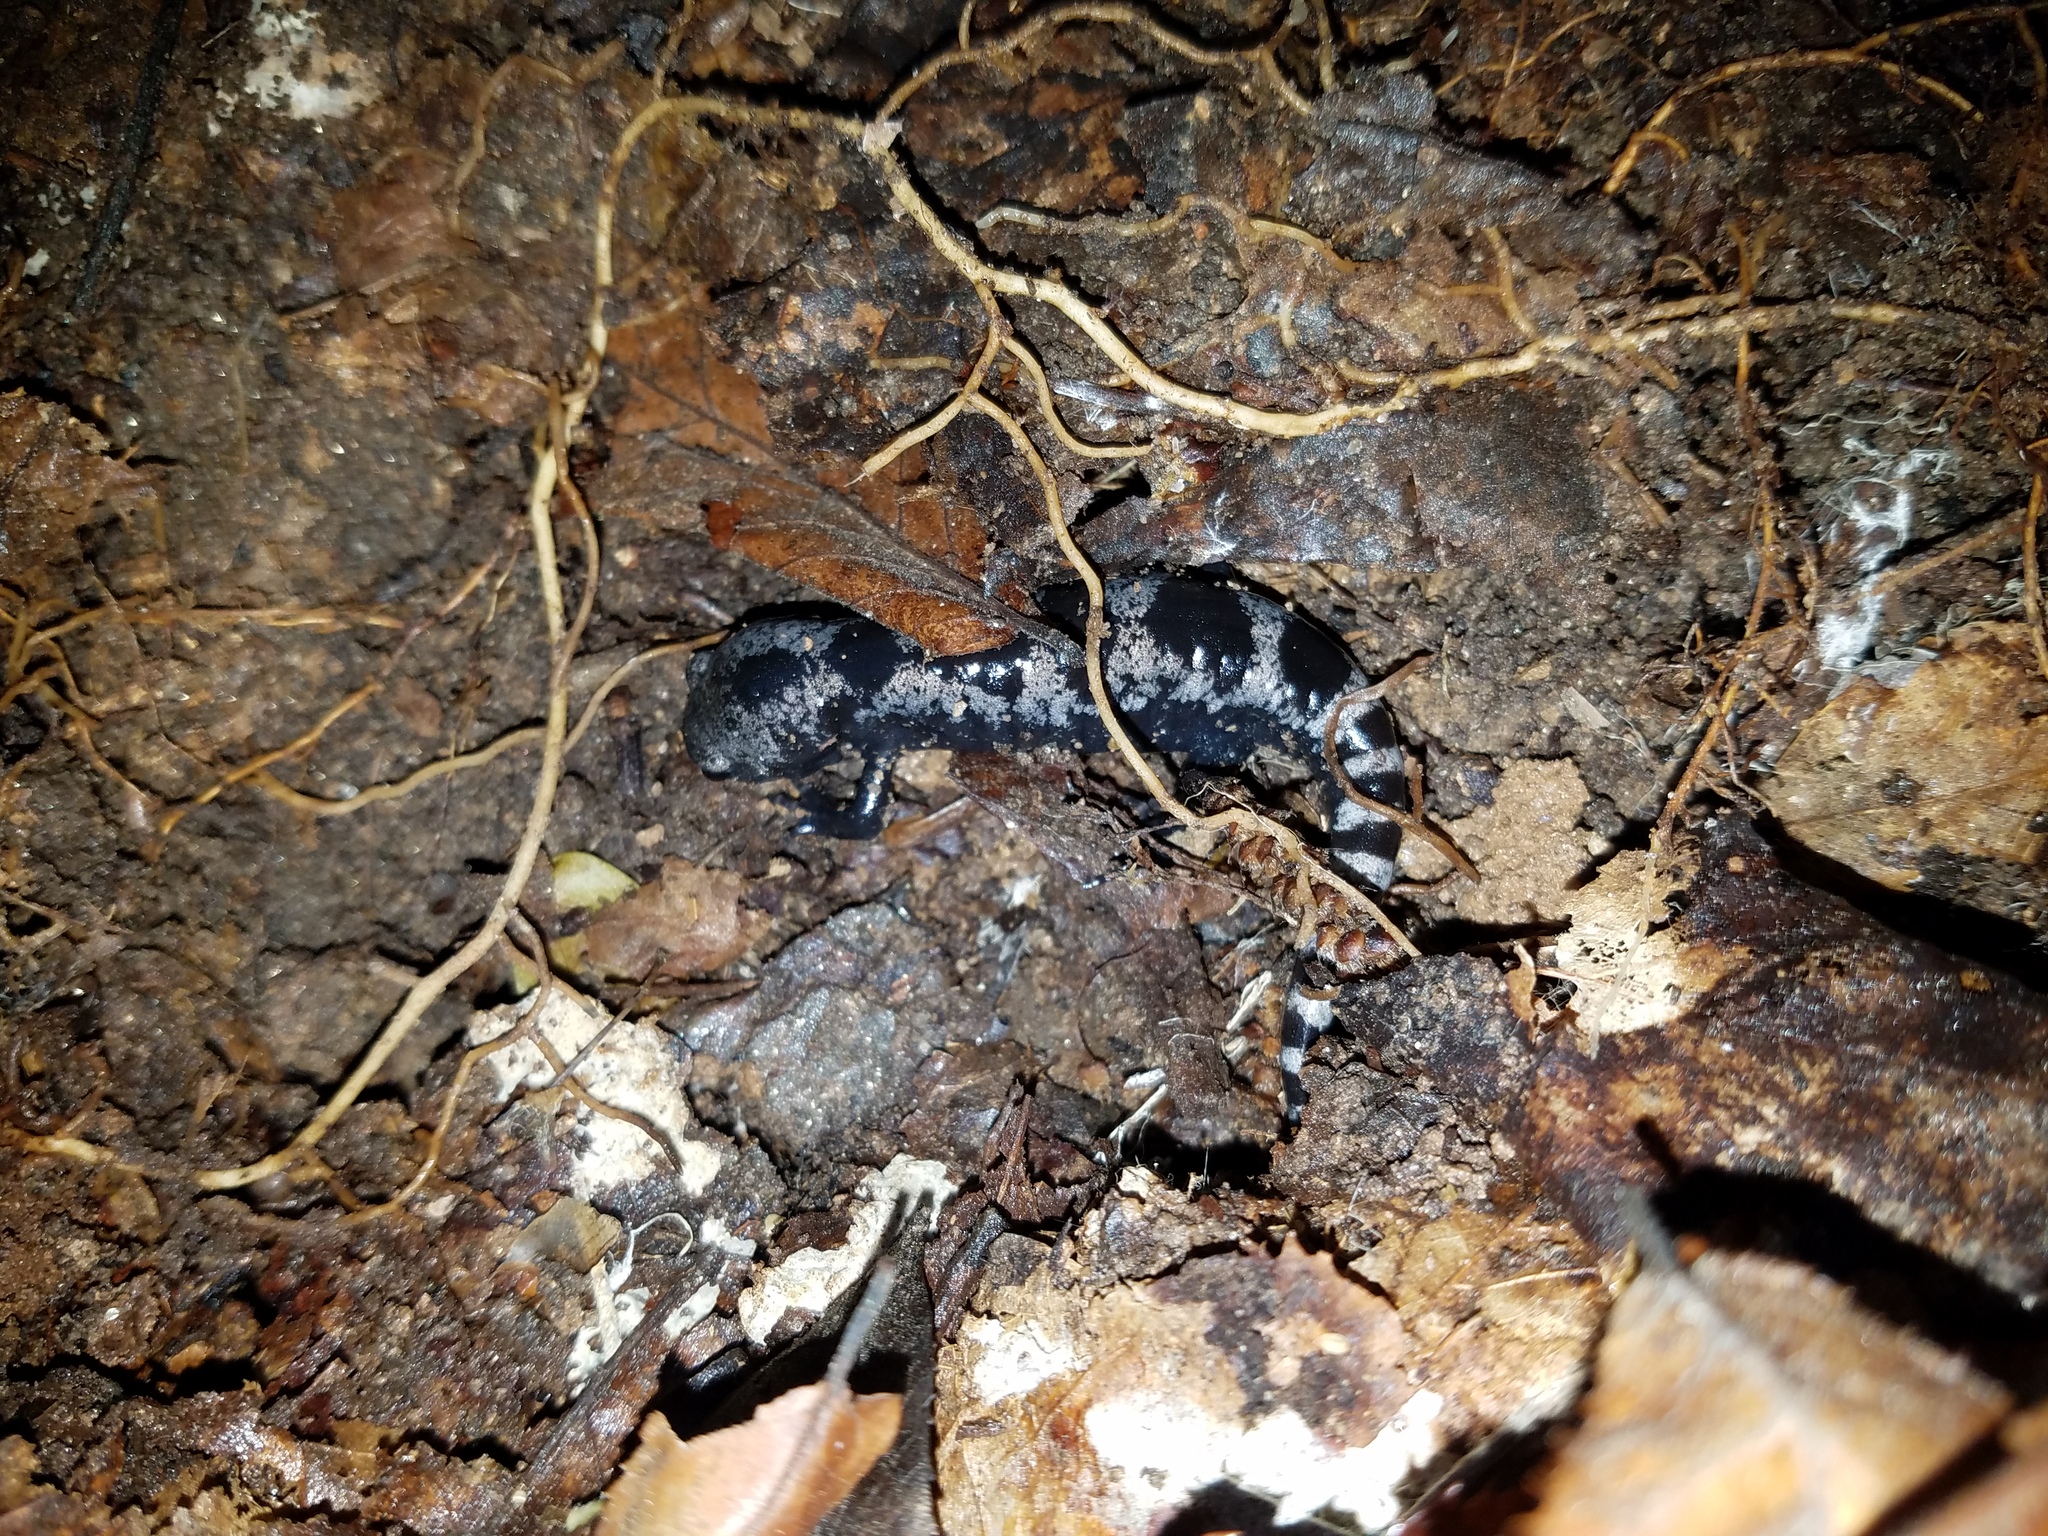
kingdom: Animalia
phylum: Chordata
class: Amphibia
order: Caudata
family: Ambystomatidae
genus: Ambystoma
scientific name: Ambystoma opacum
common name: Marbled salamander
